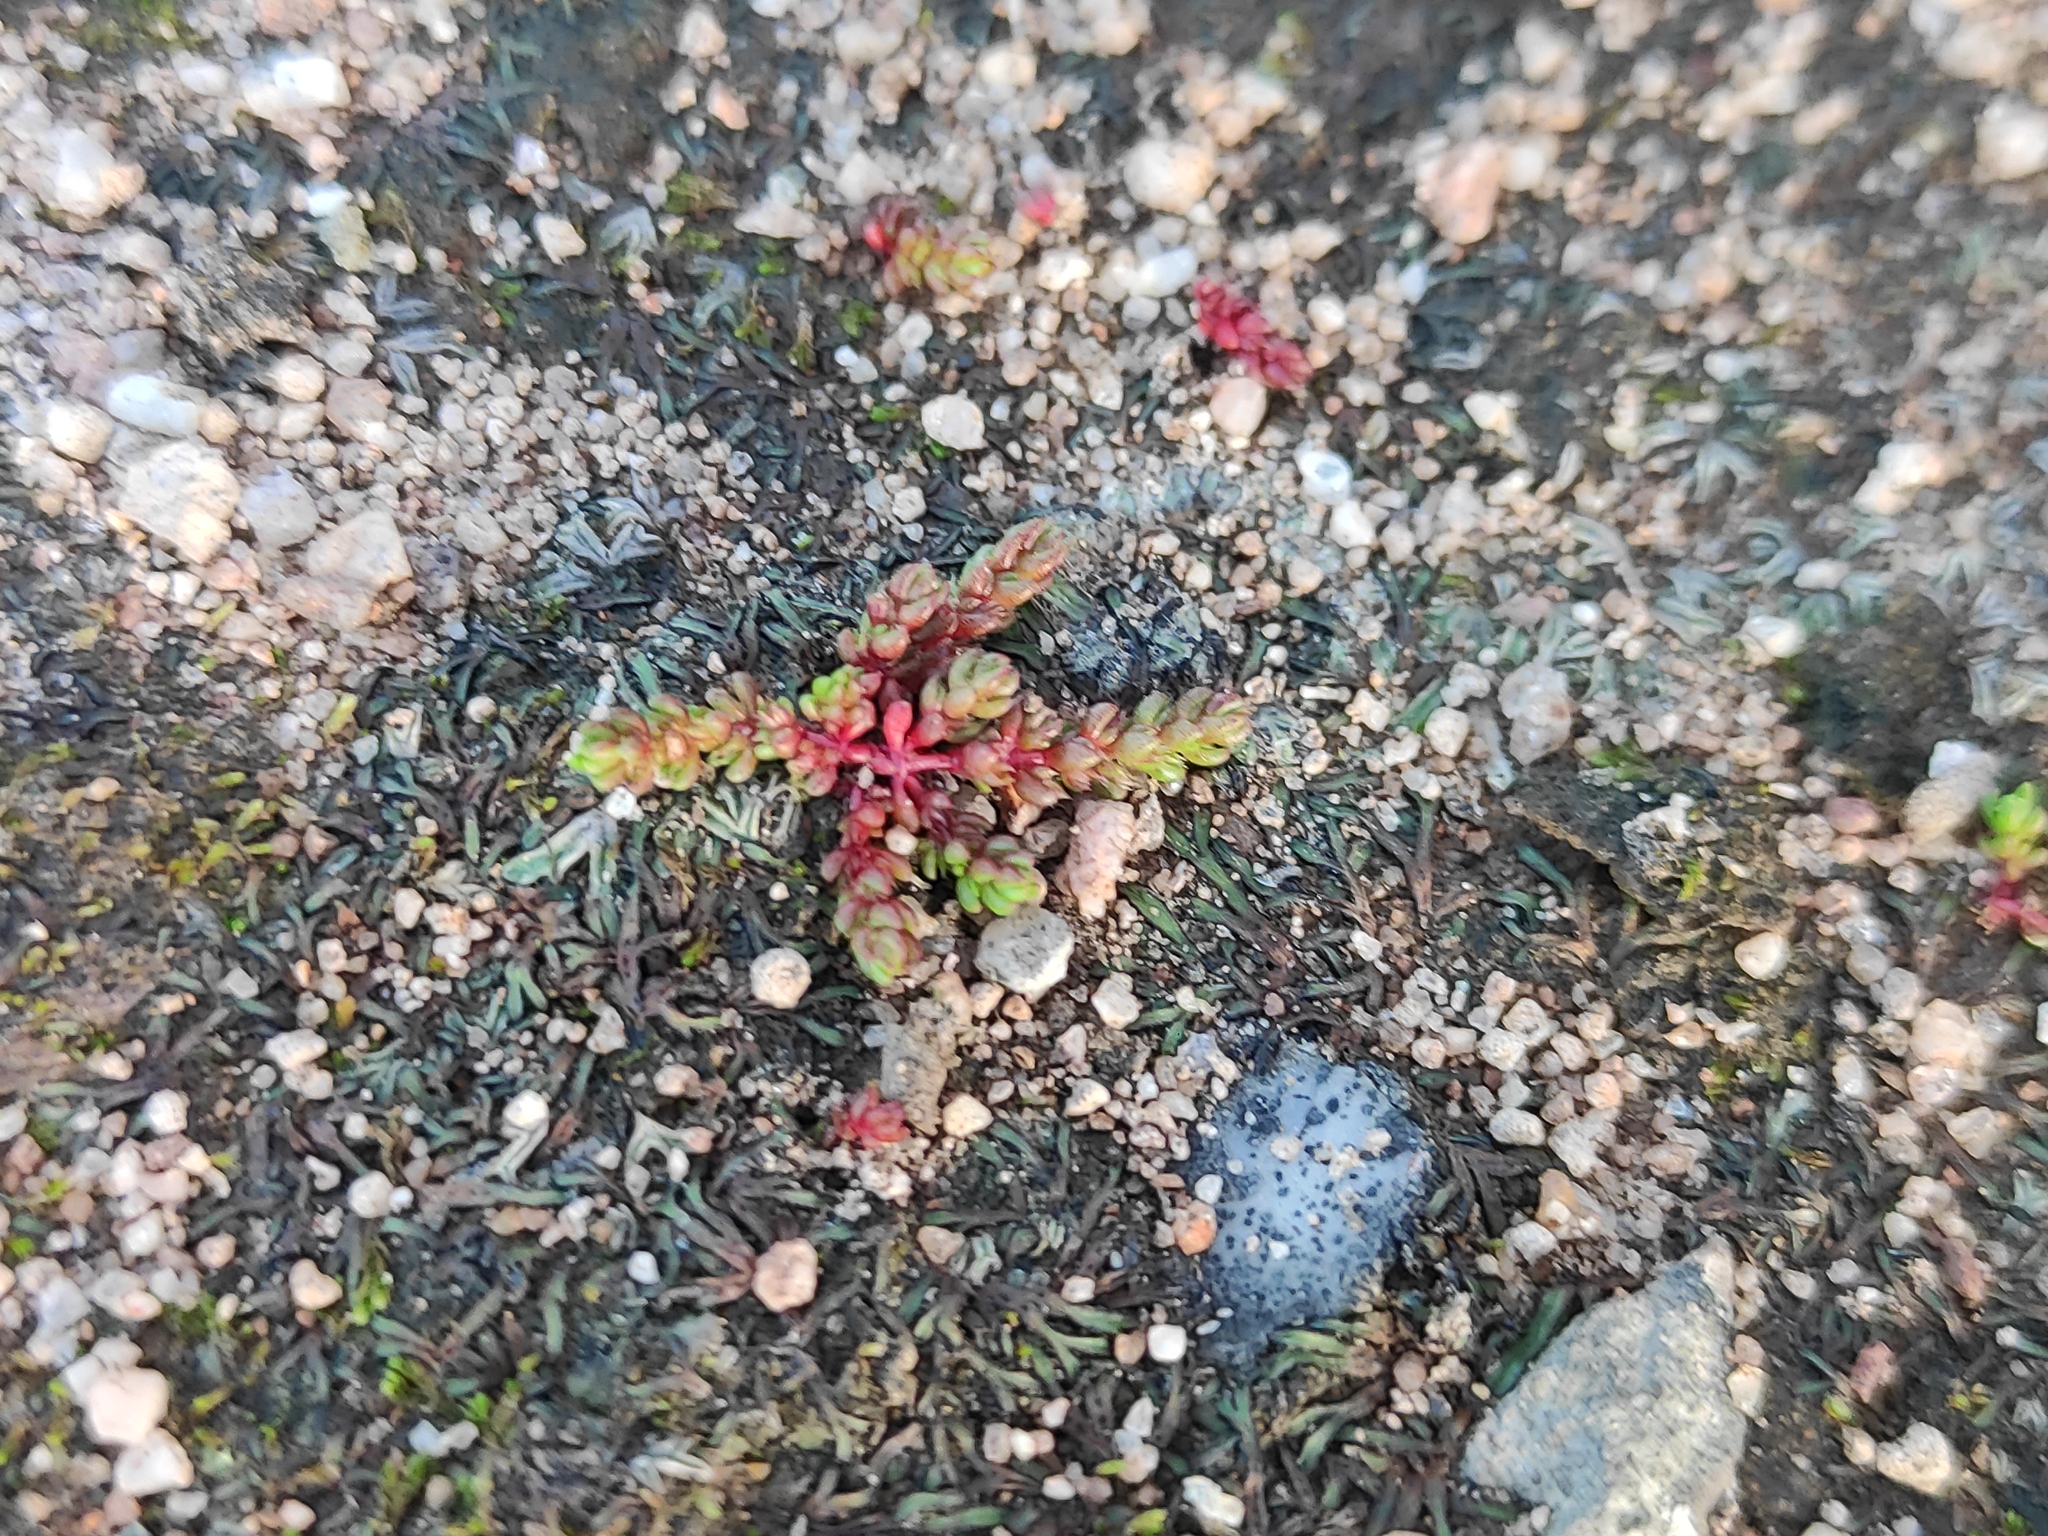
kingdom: Plantae
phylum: Tracheophyta
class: Magnoliopsida
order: Saxifragales
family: Crassulaceae
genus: Crassula
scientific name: Crassula tillaea
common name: Mossy stonecrop
